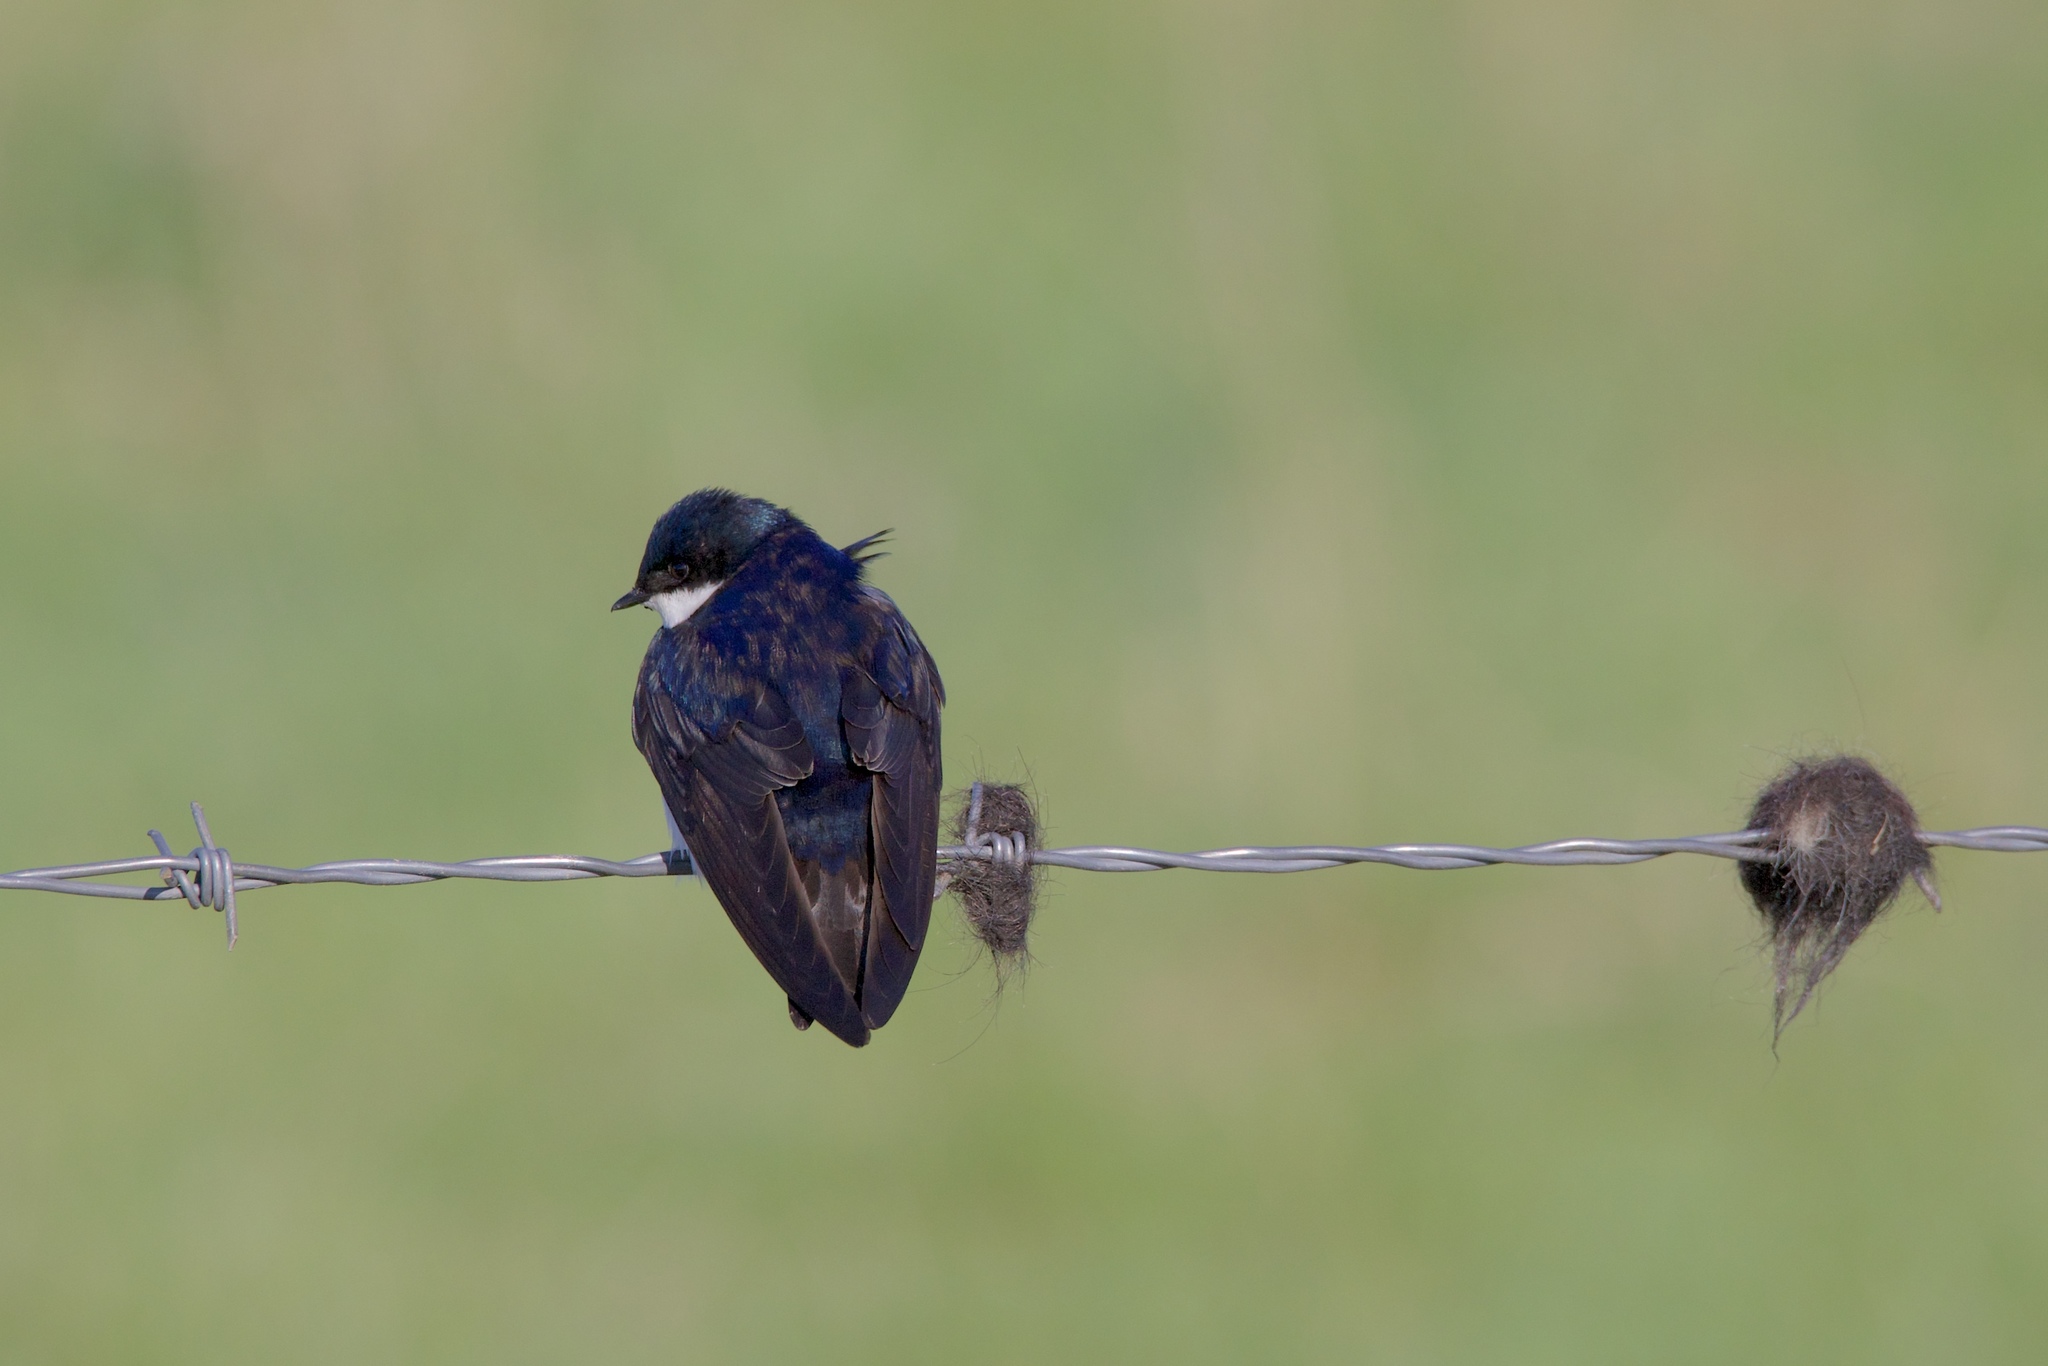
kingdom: Animalia
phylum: Chordata
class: Aves
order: Passeriformes
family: Hirundinidae
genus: Tachycineta
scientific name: Tachycineta bicolor
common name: Tree swallow
